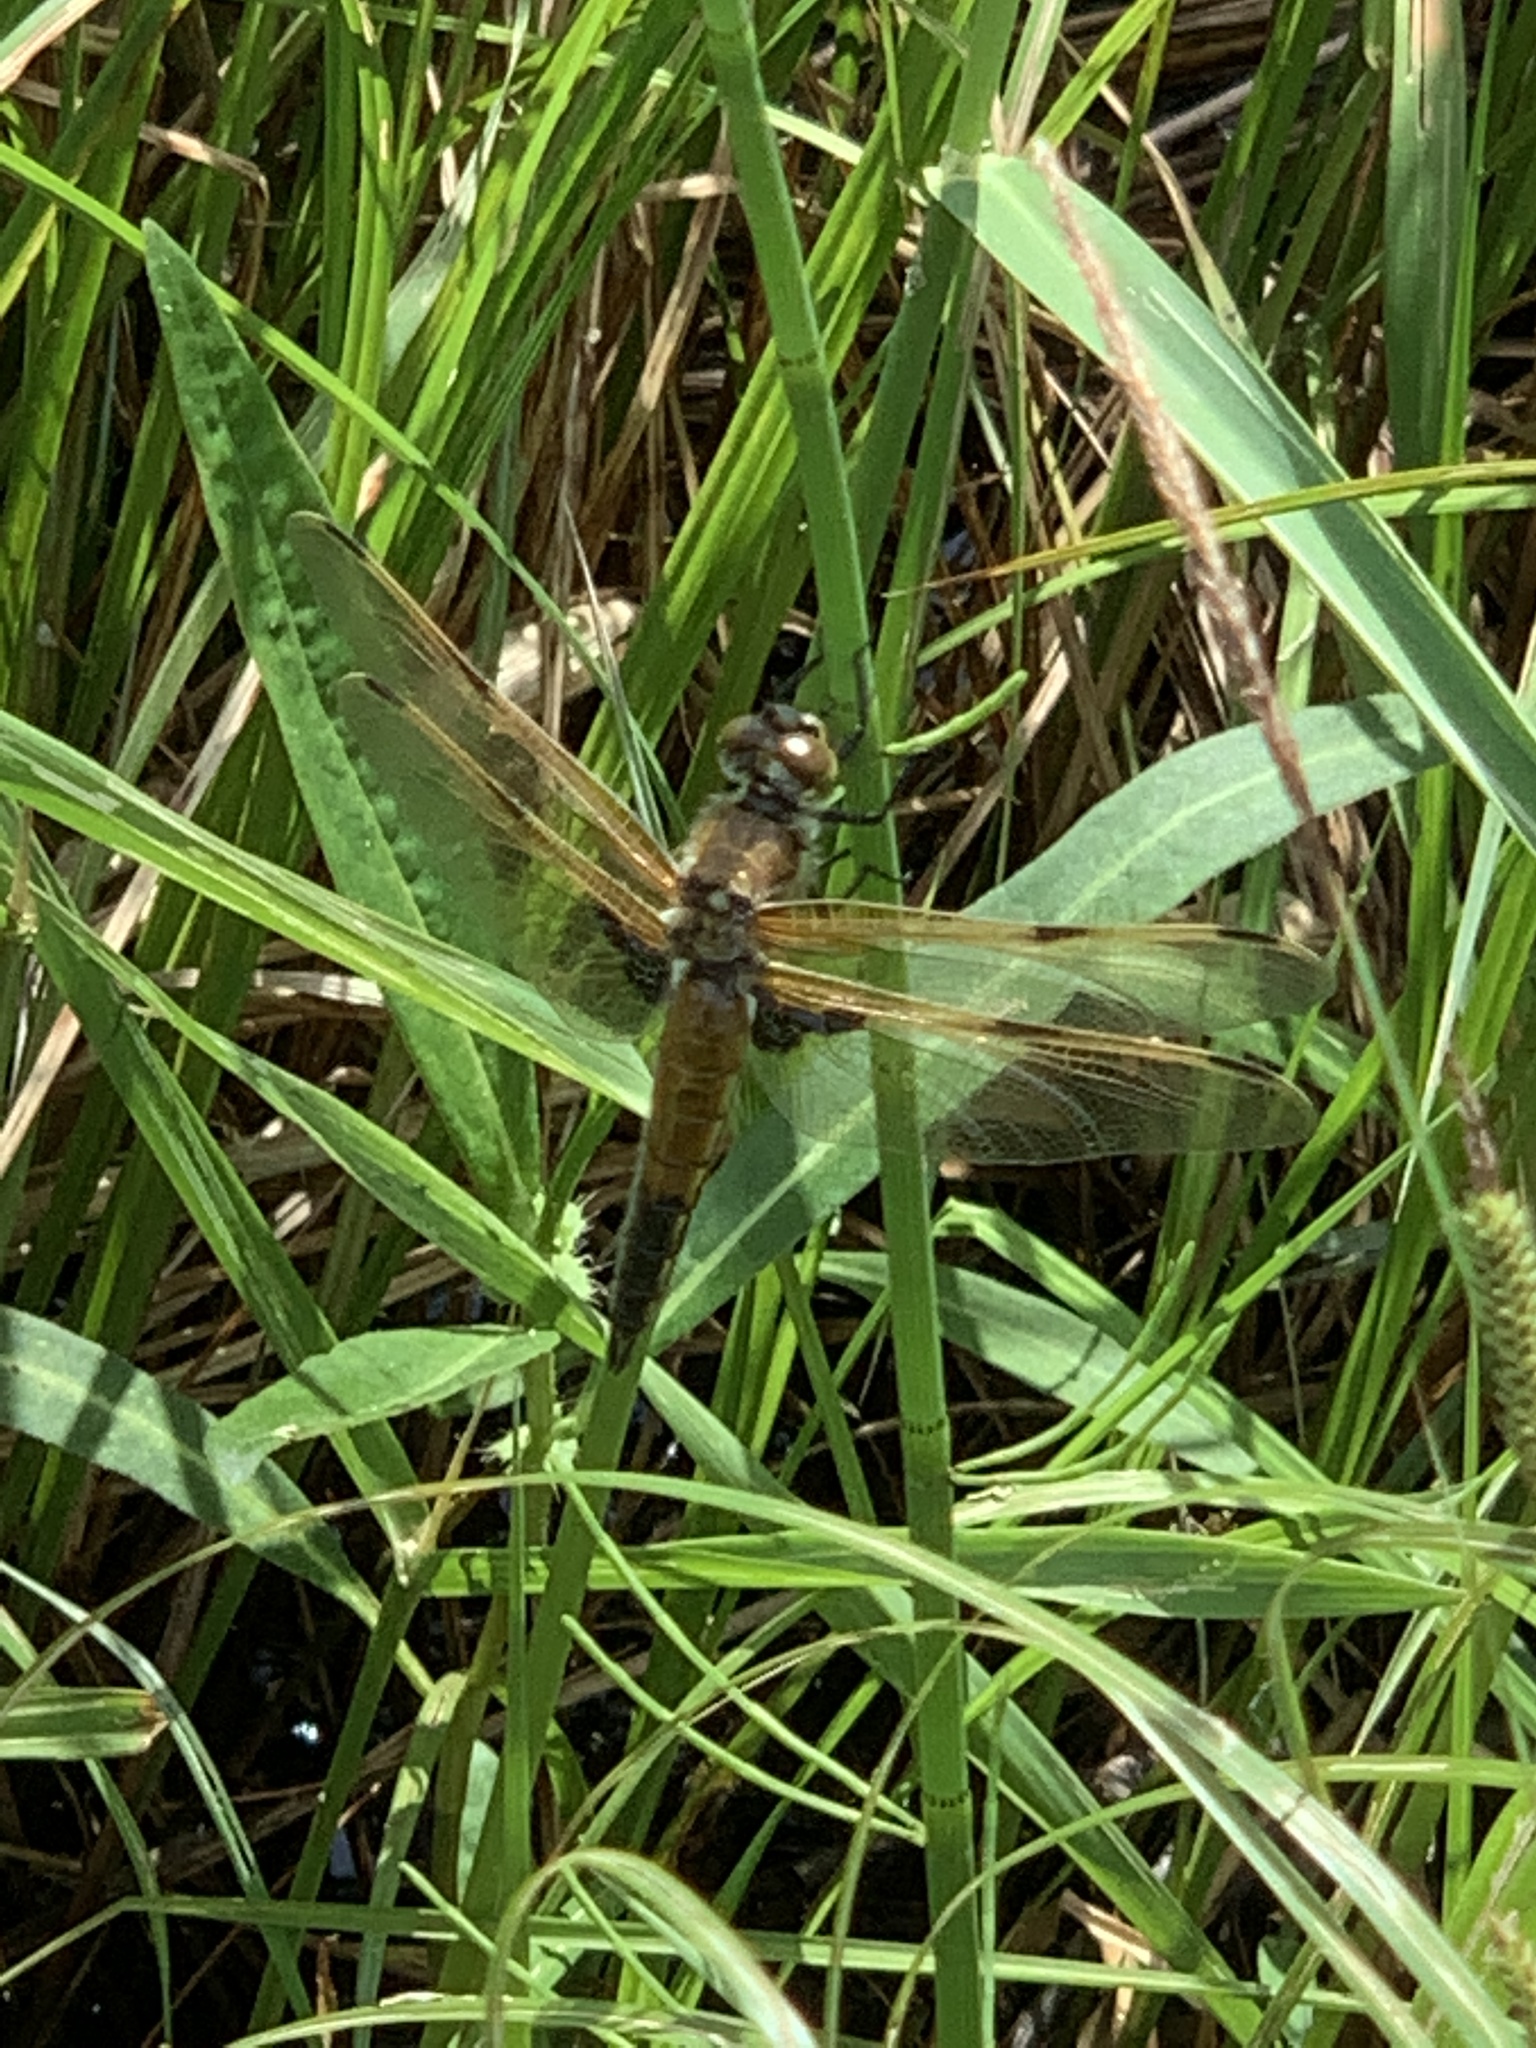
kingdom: Animalia
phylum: Arthropoda
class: Insecta
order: Odonata
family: Libellulidae
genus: Libellula
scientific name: Libellula quadrimaculata
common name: Four-spotted chaser
